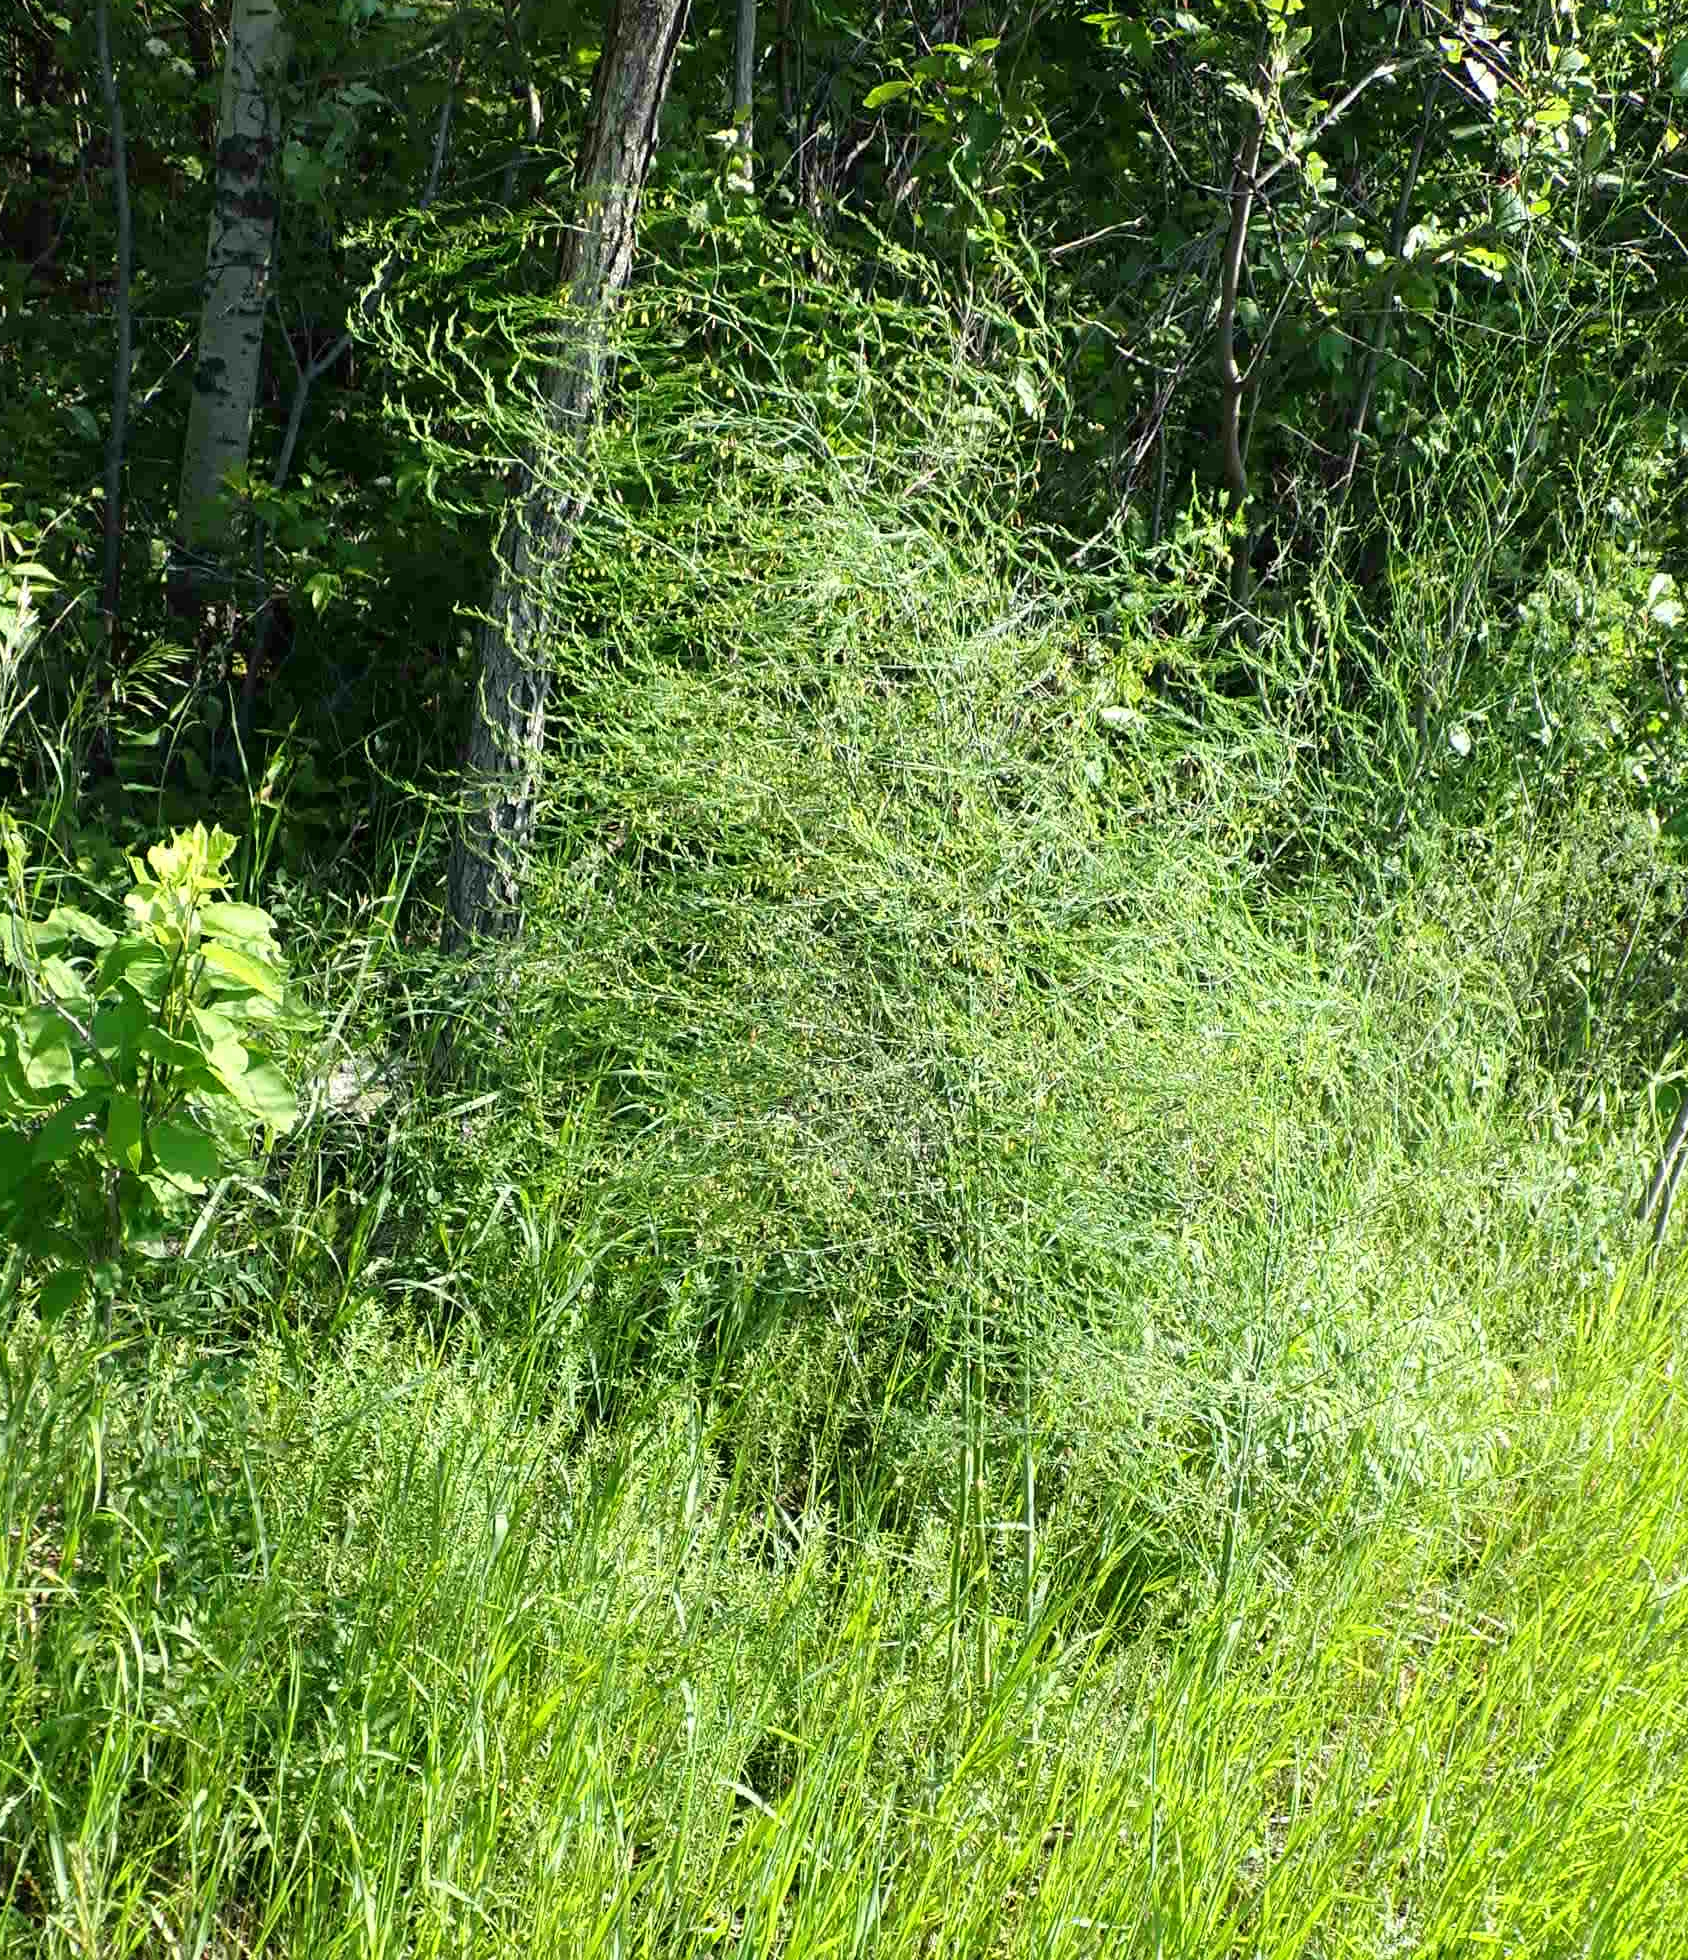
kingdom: Plantae
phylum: Tracheophyta
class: Liliopsida
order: Asparagales
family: Asparagaceae
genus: Asparagus
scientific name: Asparagus officinalis
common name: Garden asparagus
